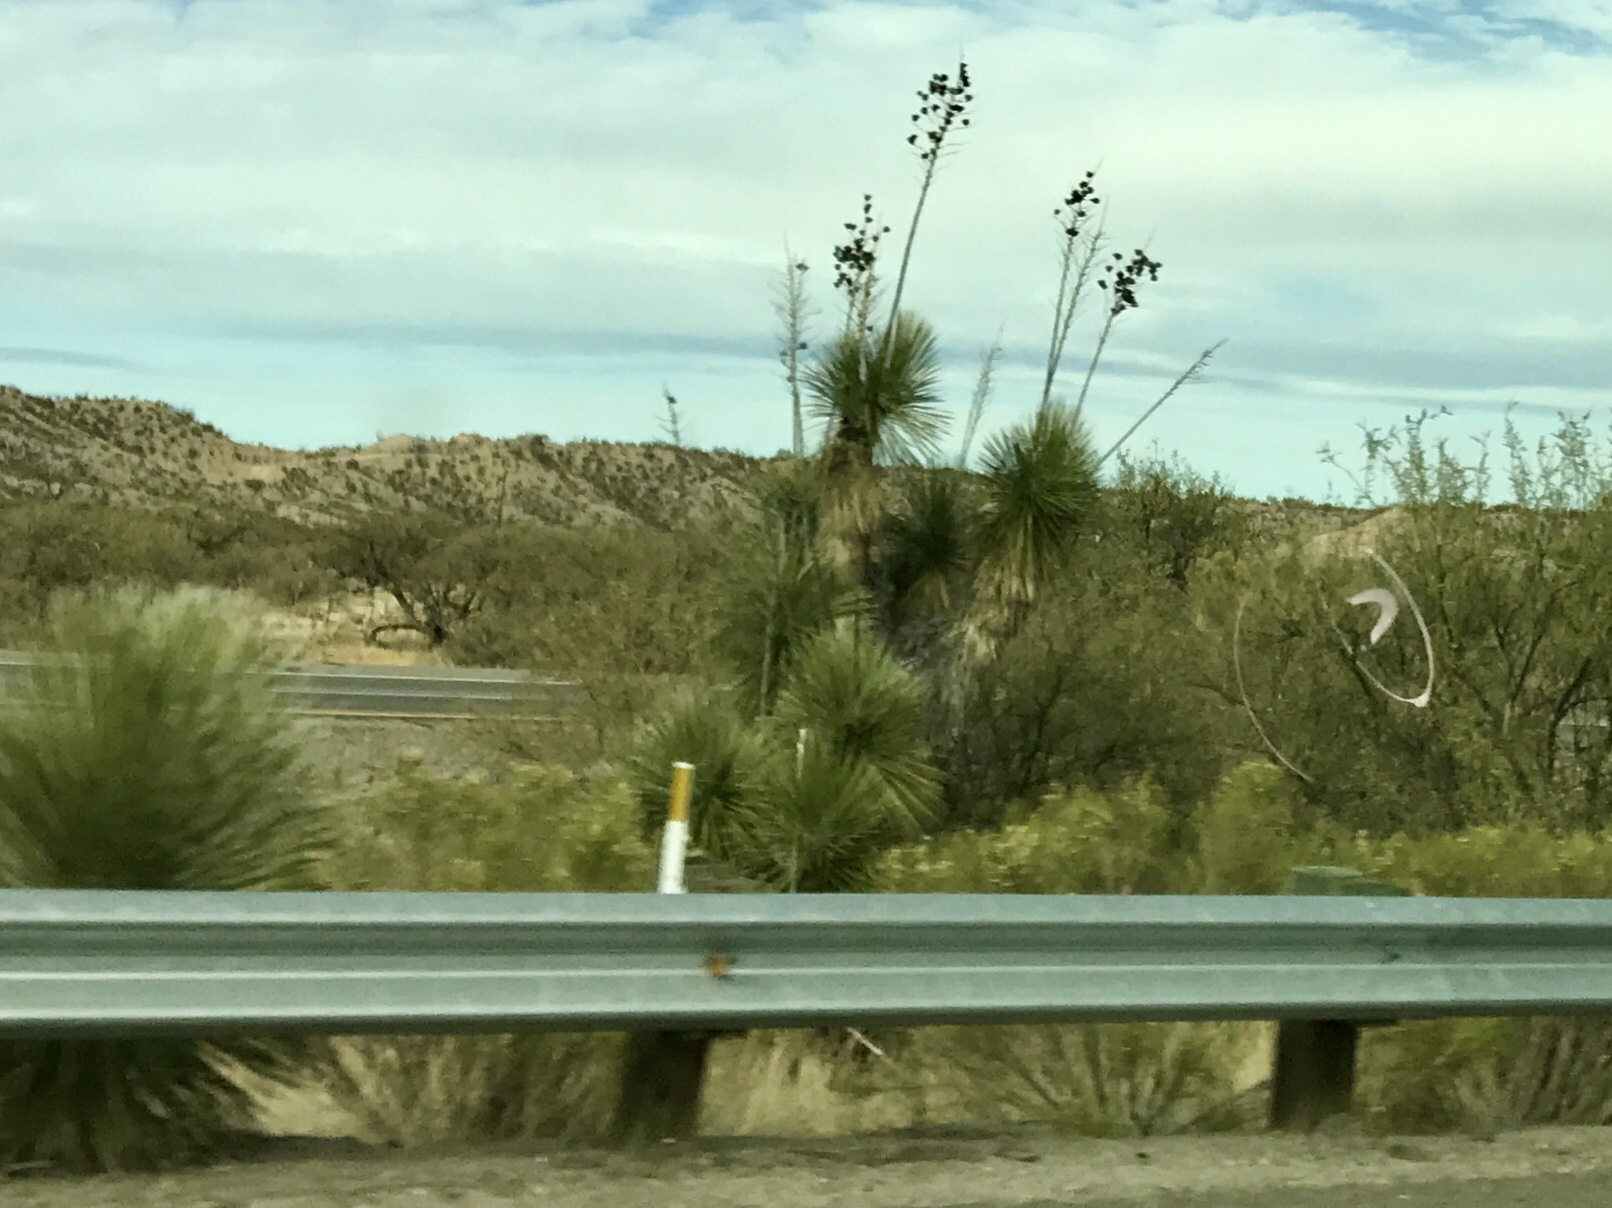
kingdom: Plantae
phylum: Tracheophyta
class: Liliopsida
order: Asparagales
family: Asparagaceae
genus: Yucca
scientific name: Yucca elata
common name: Palmella
